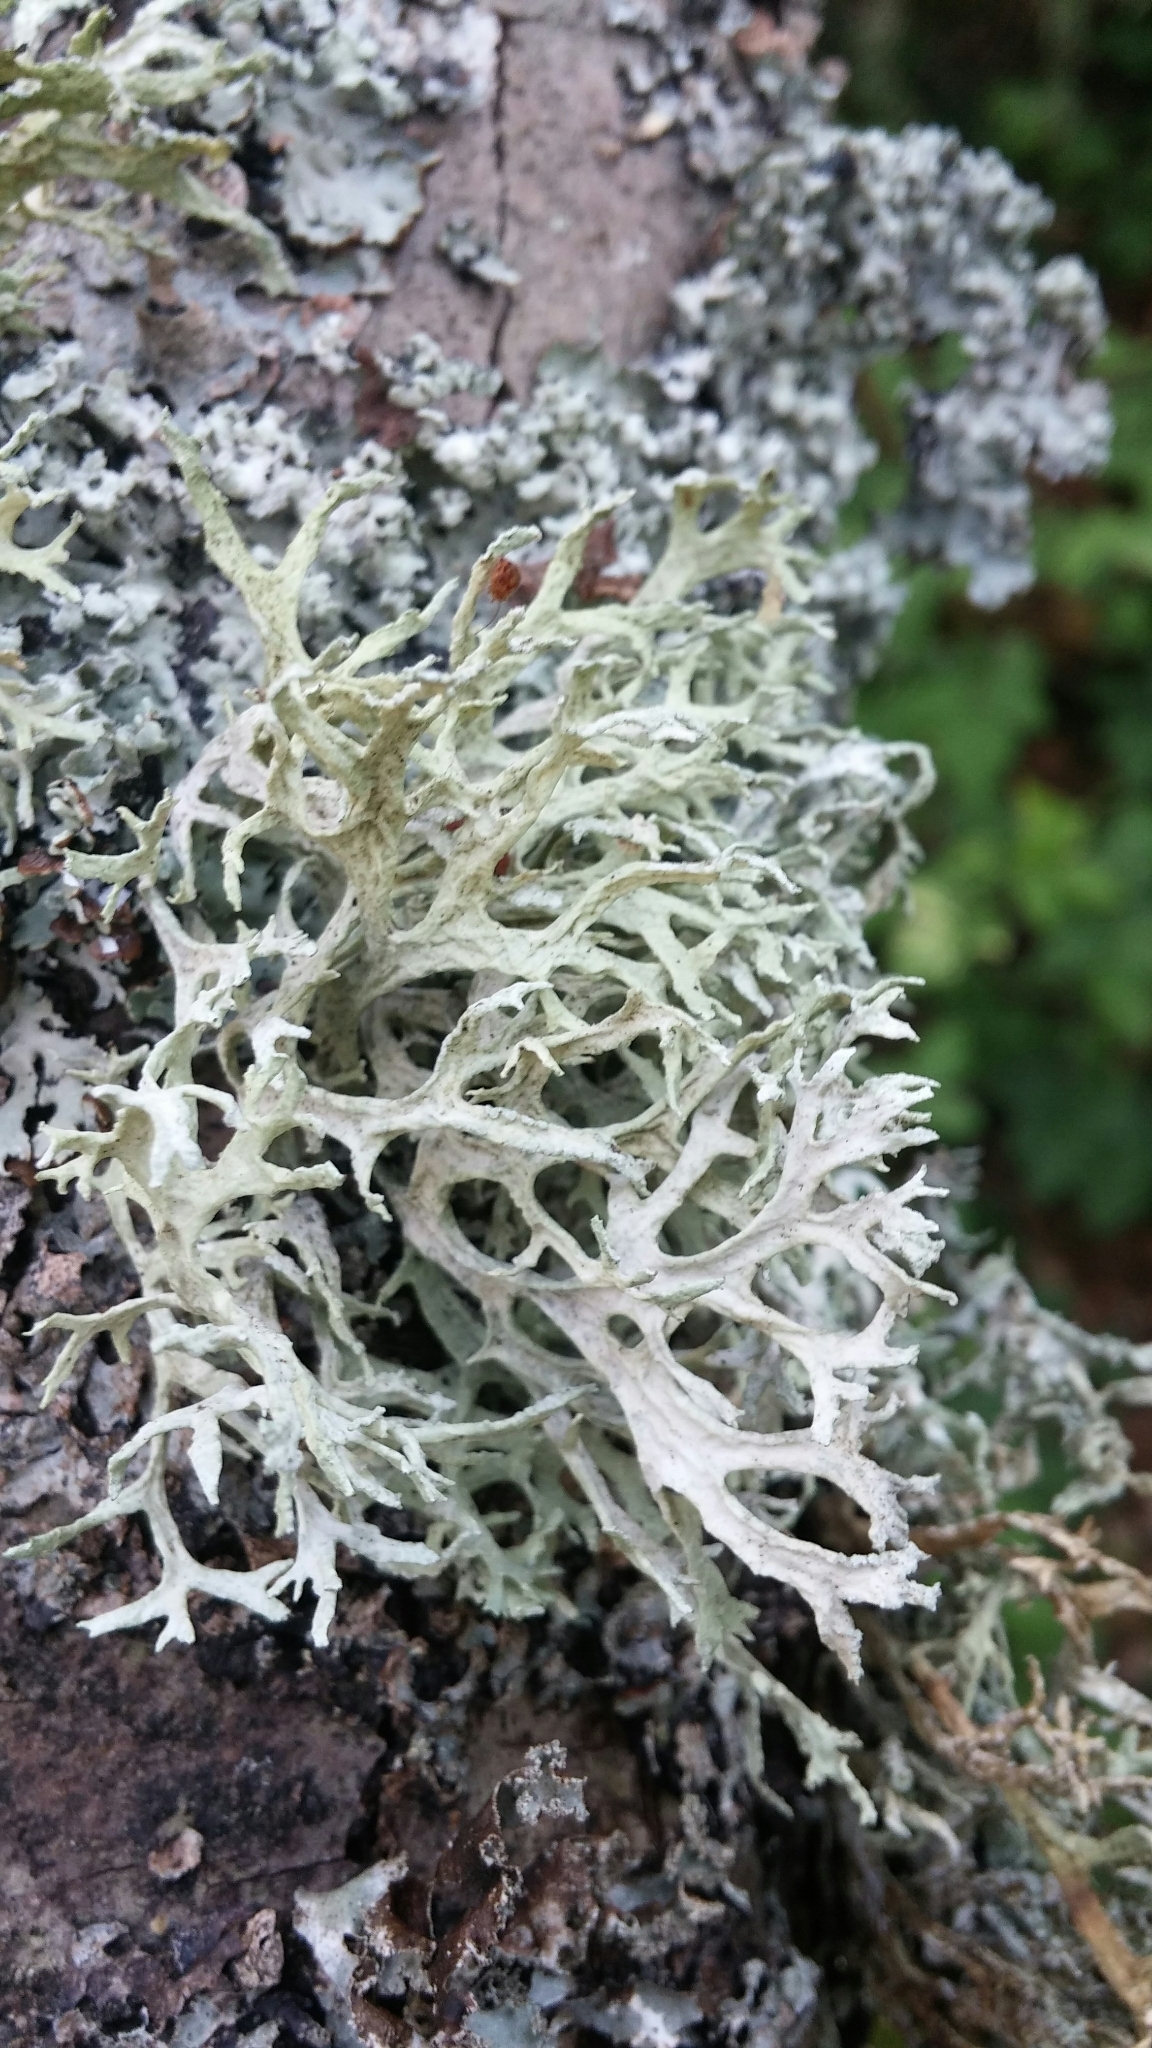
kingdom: Fungi
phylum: Ascomycota
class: Lecanoromycetes
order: Lecanorales
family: Parmeliaceae
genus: Evernia
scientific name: Evernia prunastri
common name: Oak moss
